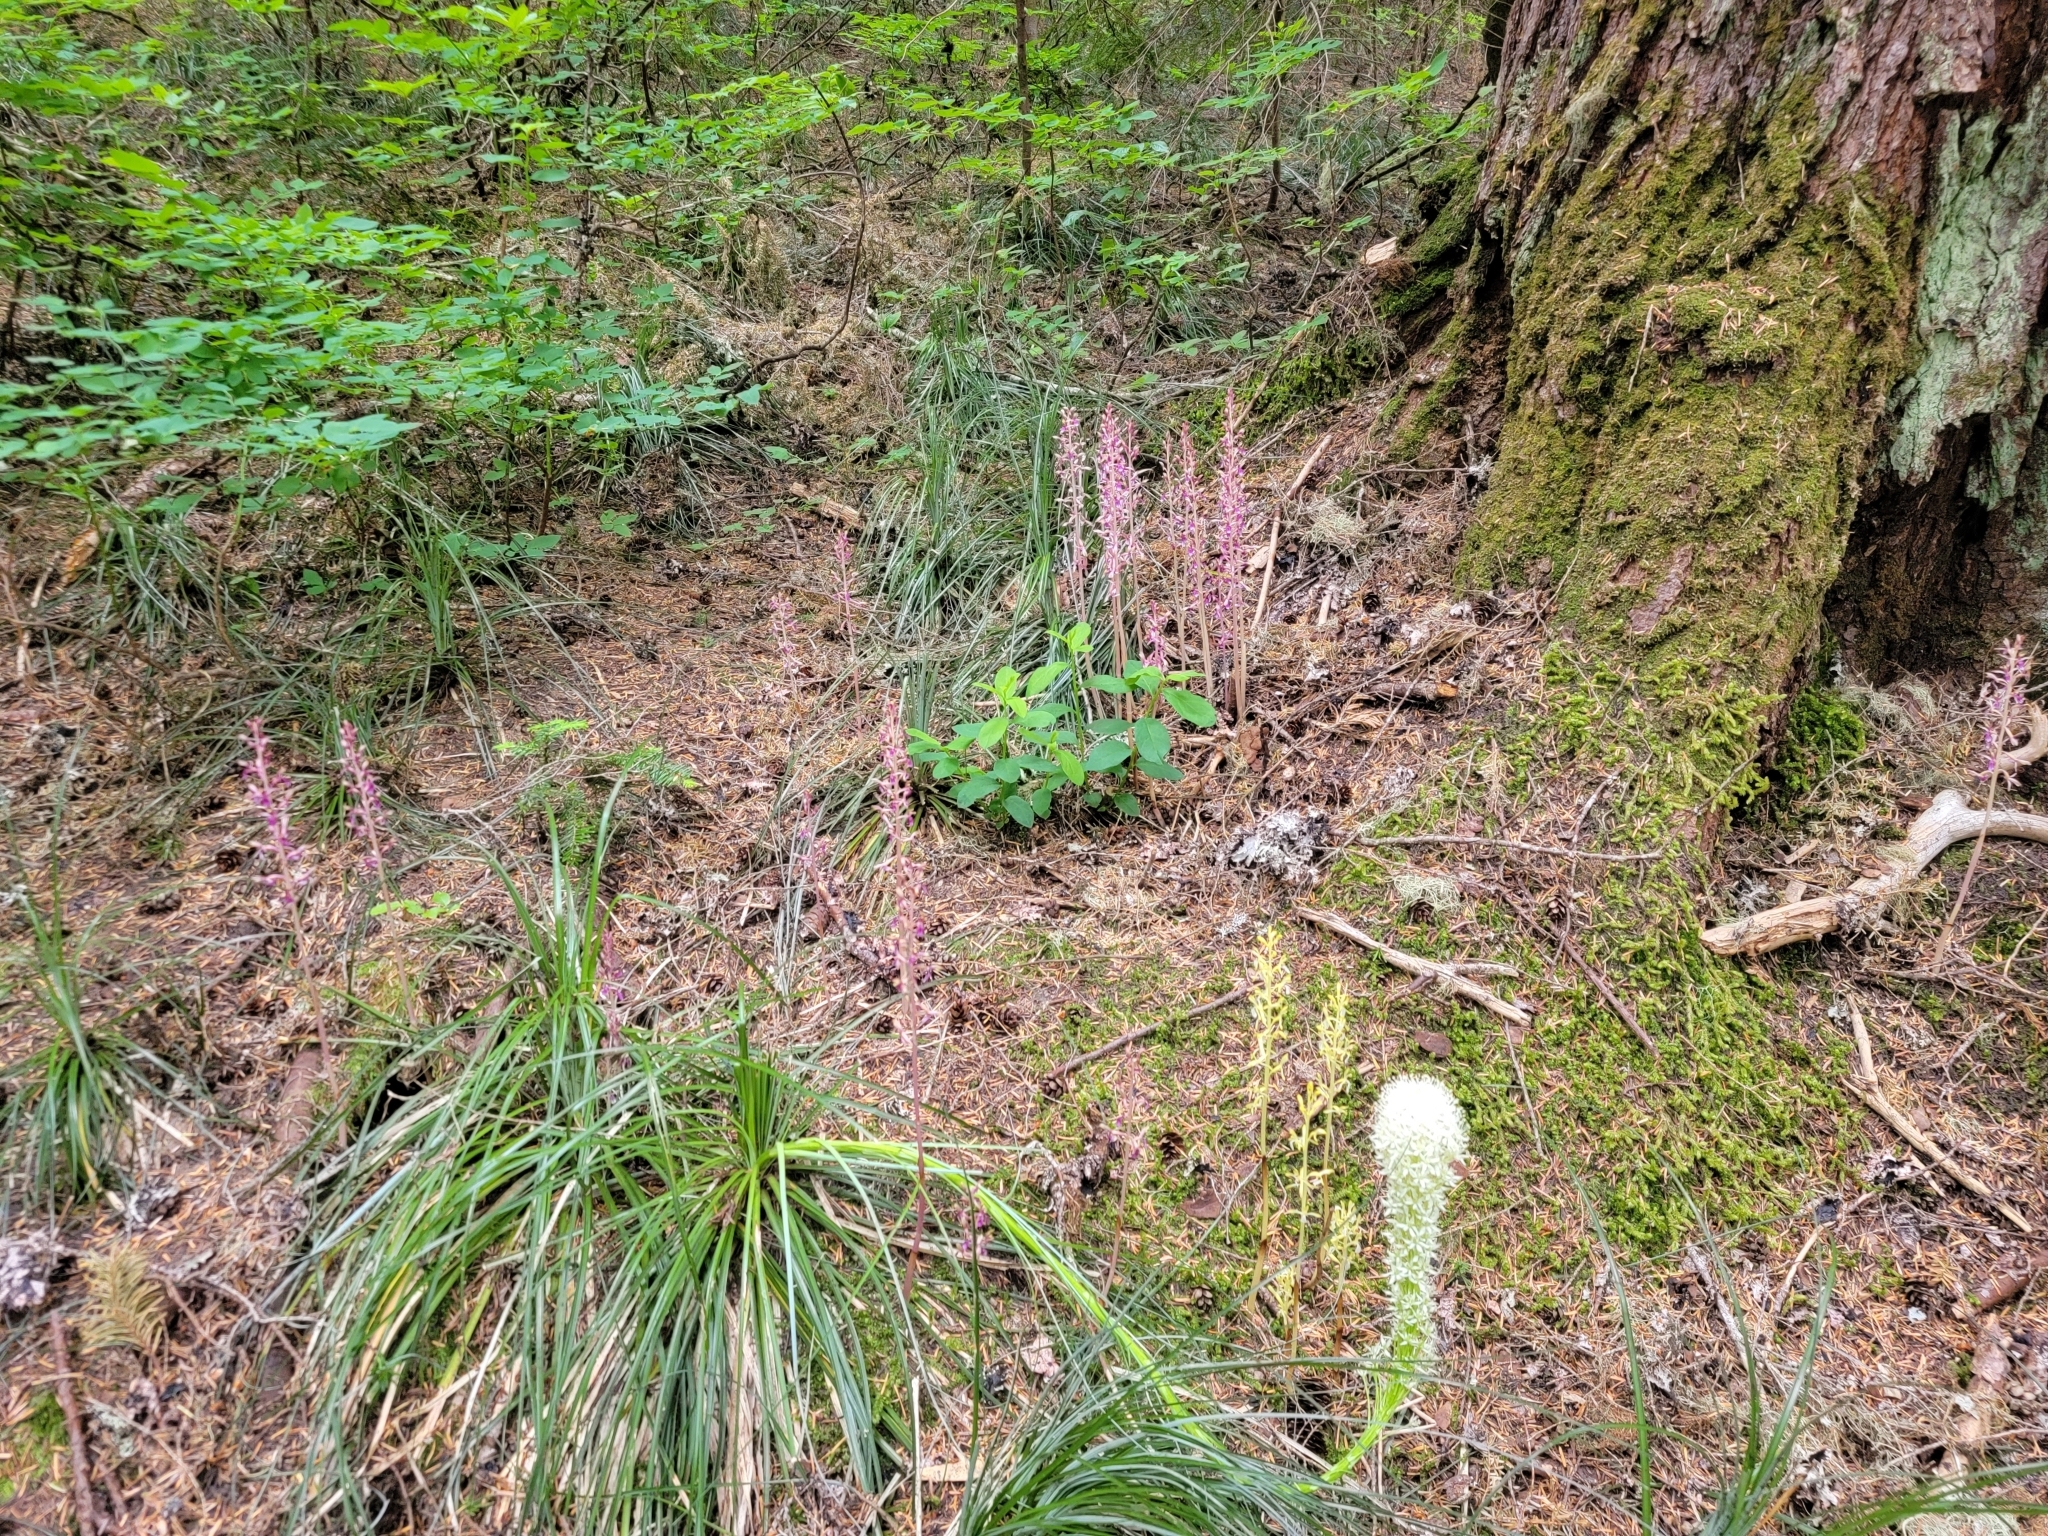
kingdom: Plantae
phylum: Tracheophyta
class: Liliopsida
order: Liliales
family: Melanthiaceae
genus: Xerophyllum
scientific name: Xerophyllum tenax
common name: Bear-grass
